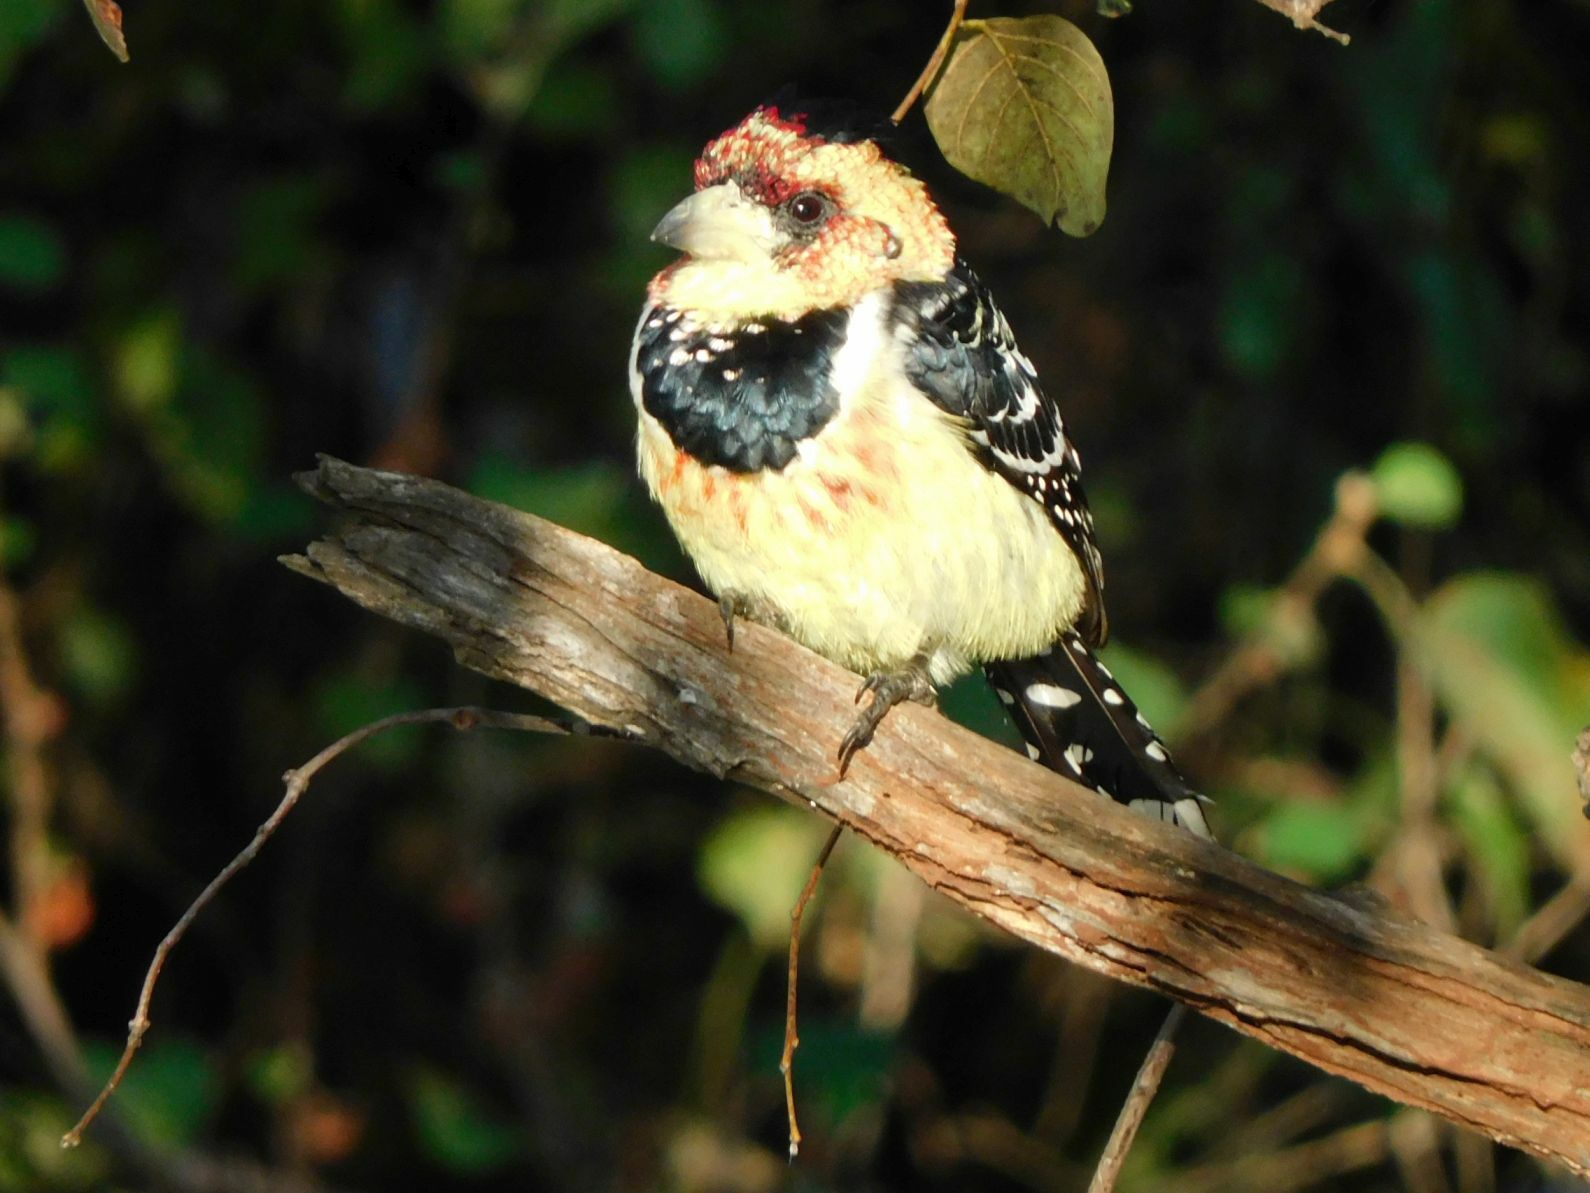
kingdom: Animalia
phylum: Chordata
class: Aves
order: Piciformes
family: Lybiidae
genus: Trachyphonus
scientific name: Trachyphonus vaillantii
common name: Crested barbet
